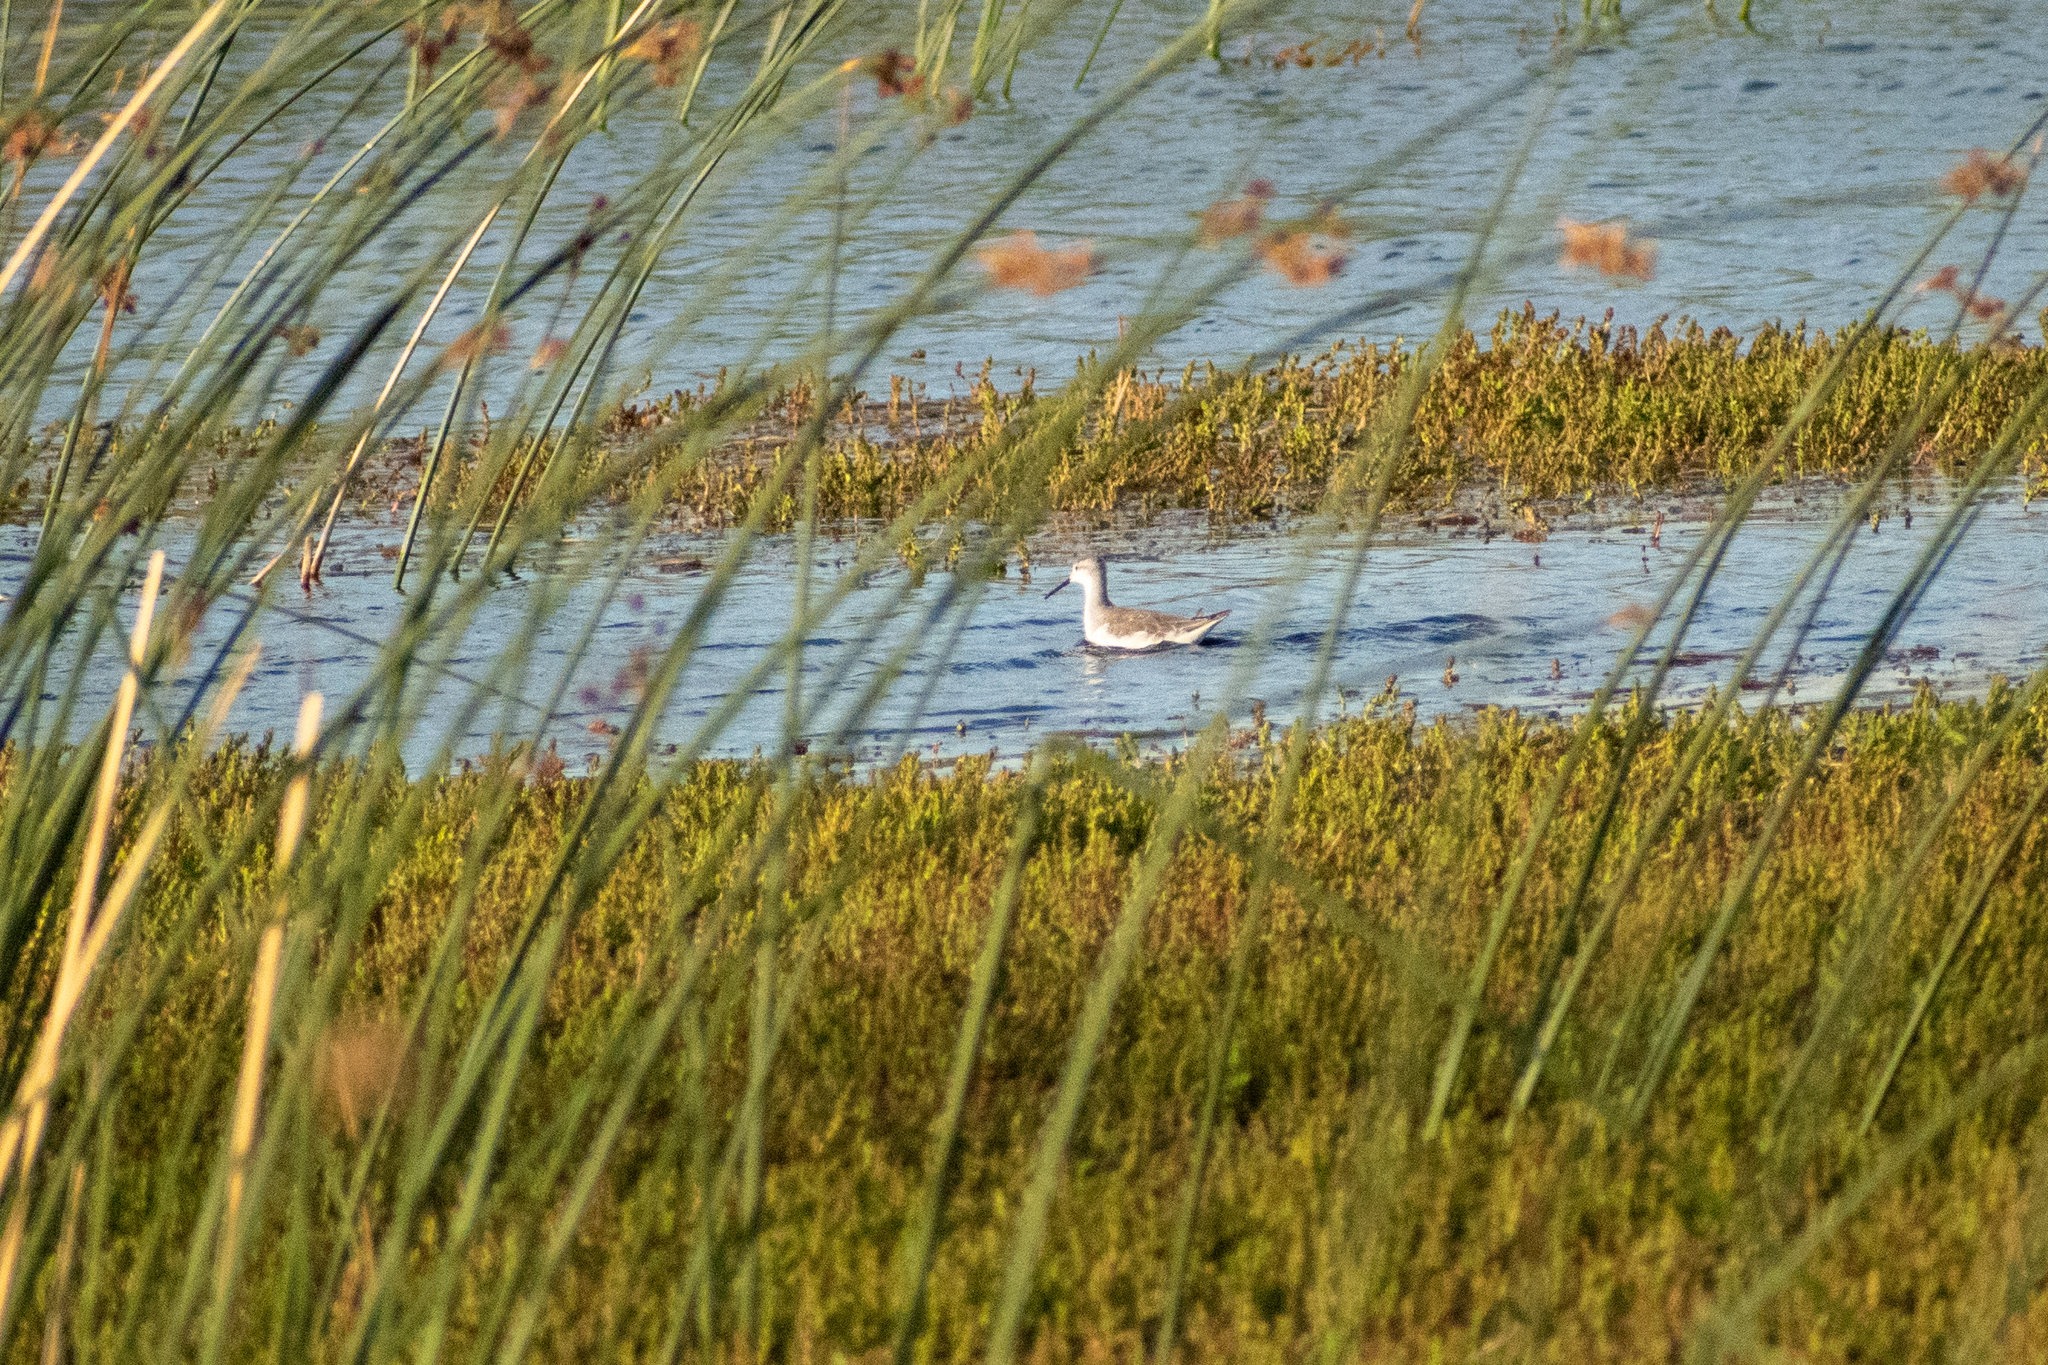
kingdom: Animalia
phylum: Chordata
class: Aves
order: Charadriiformes
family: Scolopacidae
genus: Phalaropus
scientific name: Phalaropus tricolor
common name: Wilson's phalarope
